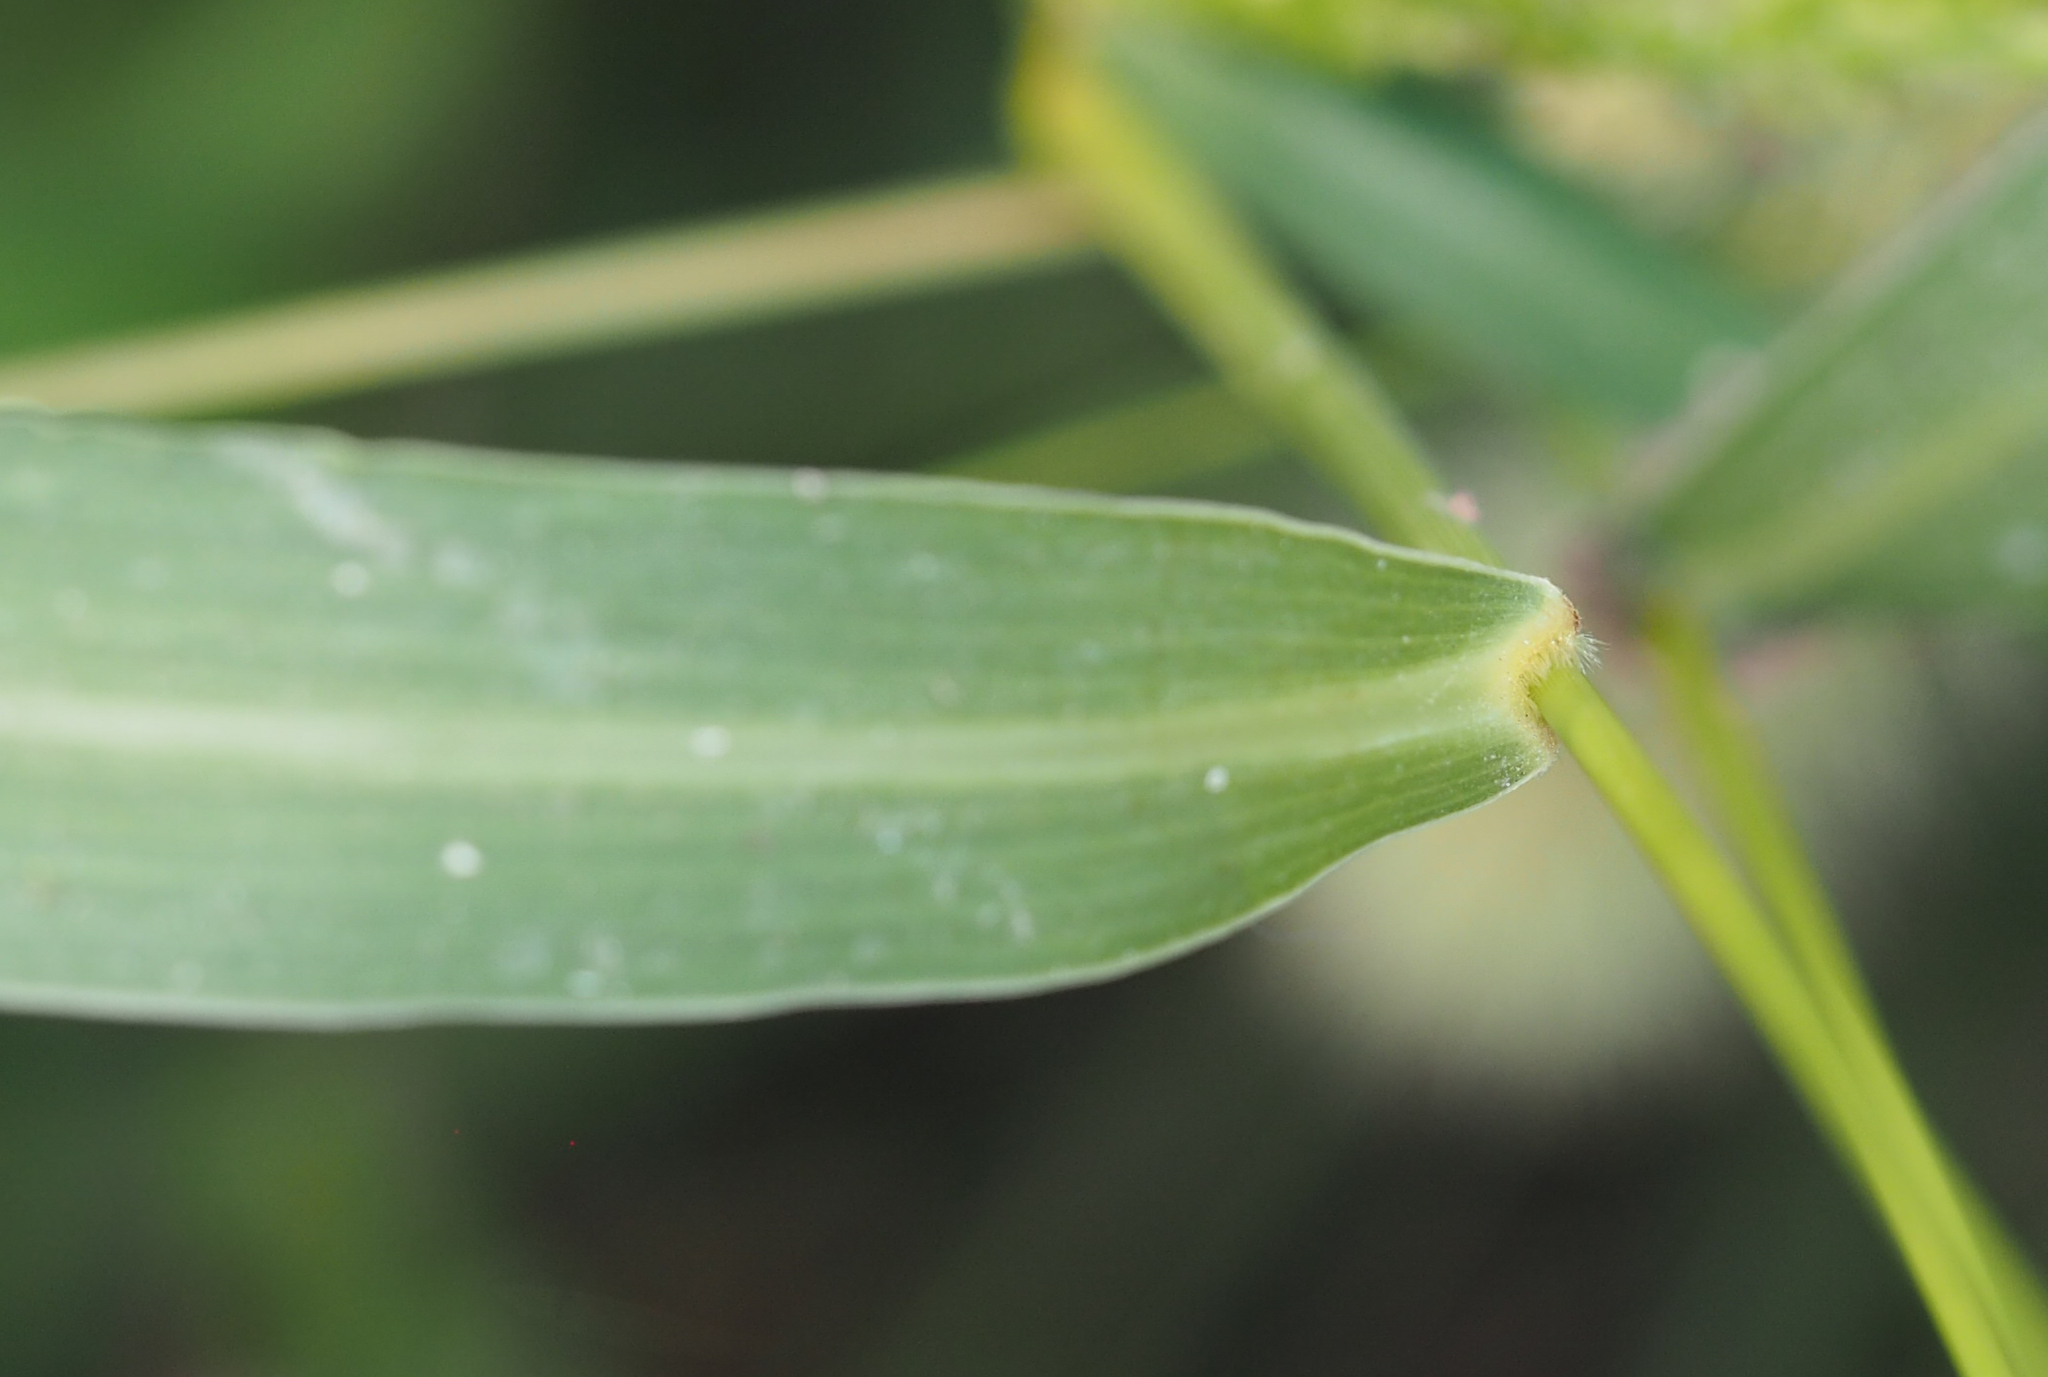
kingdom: Plantae
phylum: Tracheophyta
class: Liliopsida
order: Poales
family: Poaceae
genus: Setaria
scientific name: Setaria faberi
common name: Nodding bristle-grass
